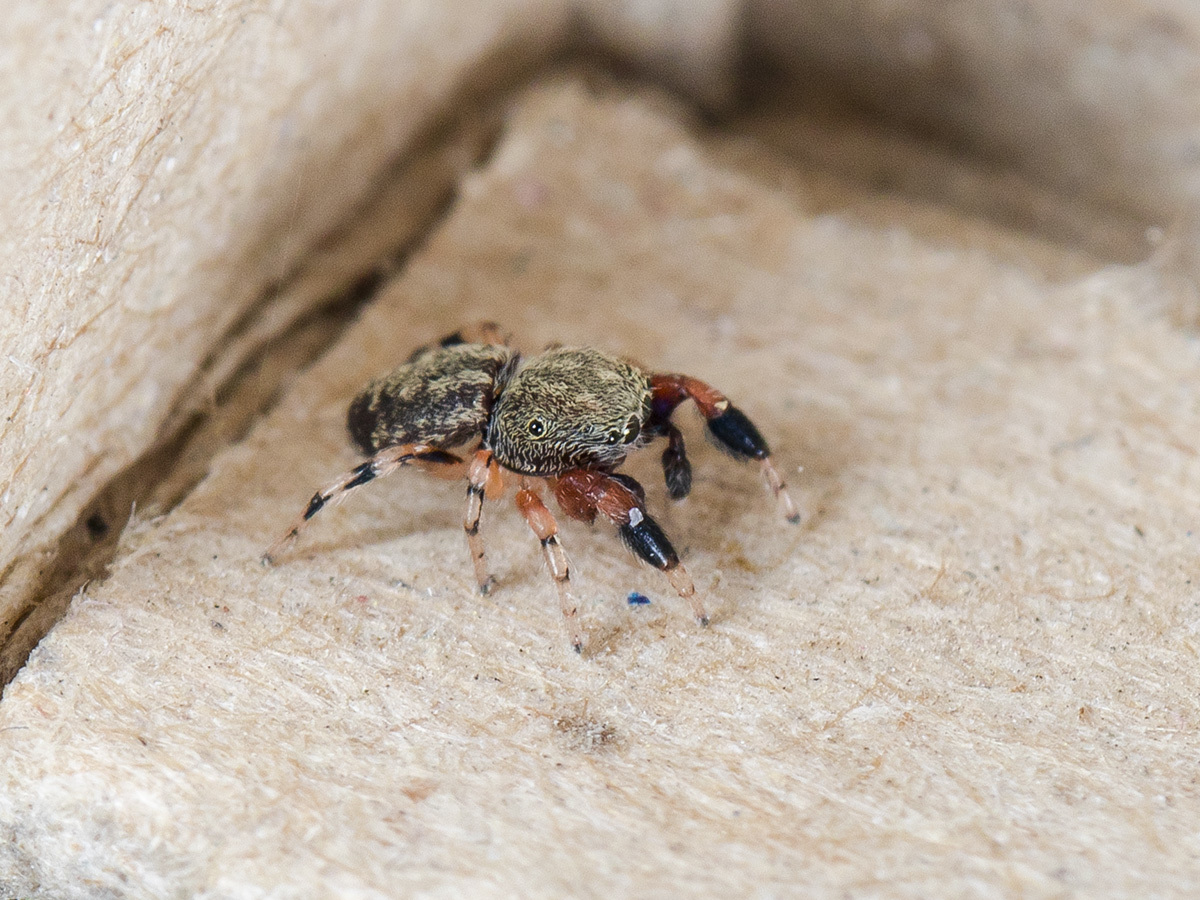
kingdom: Animalia
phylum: Arthropoda
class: Arachnida
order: Araneae
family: Salticidae
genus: Ballus
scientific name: Ballus chalybeius
